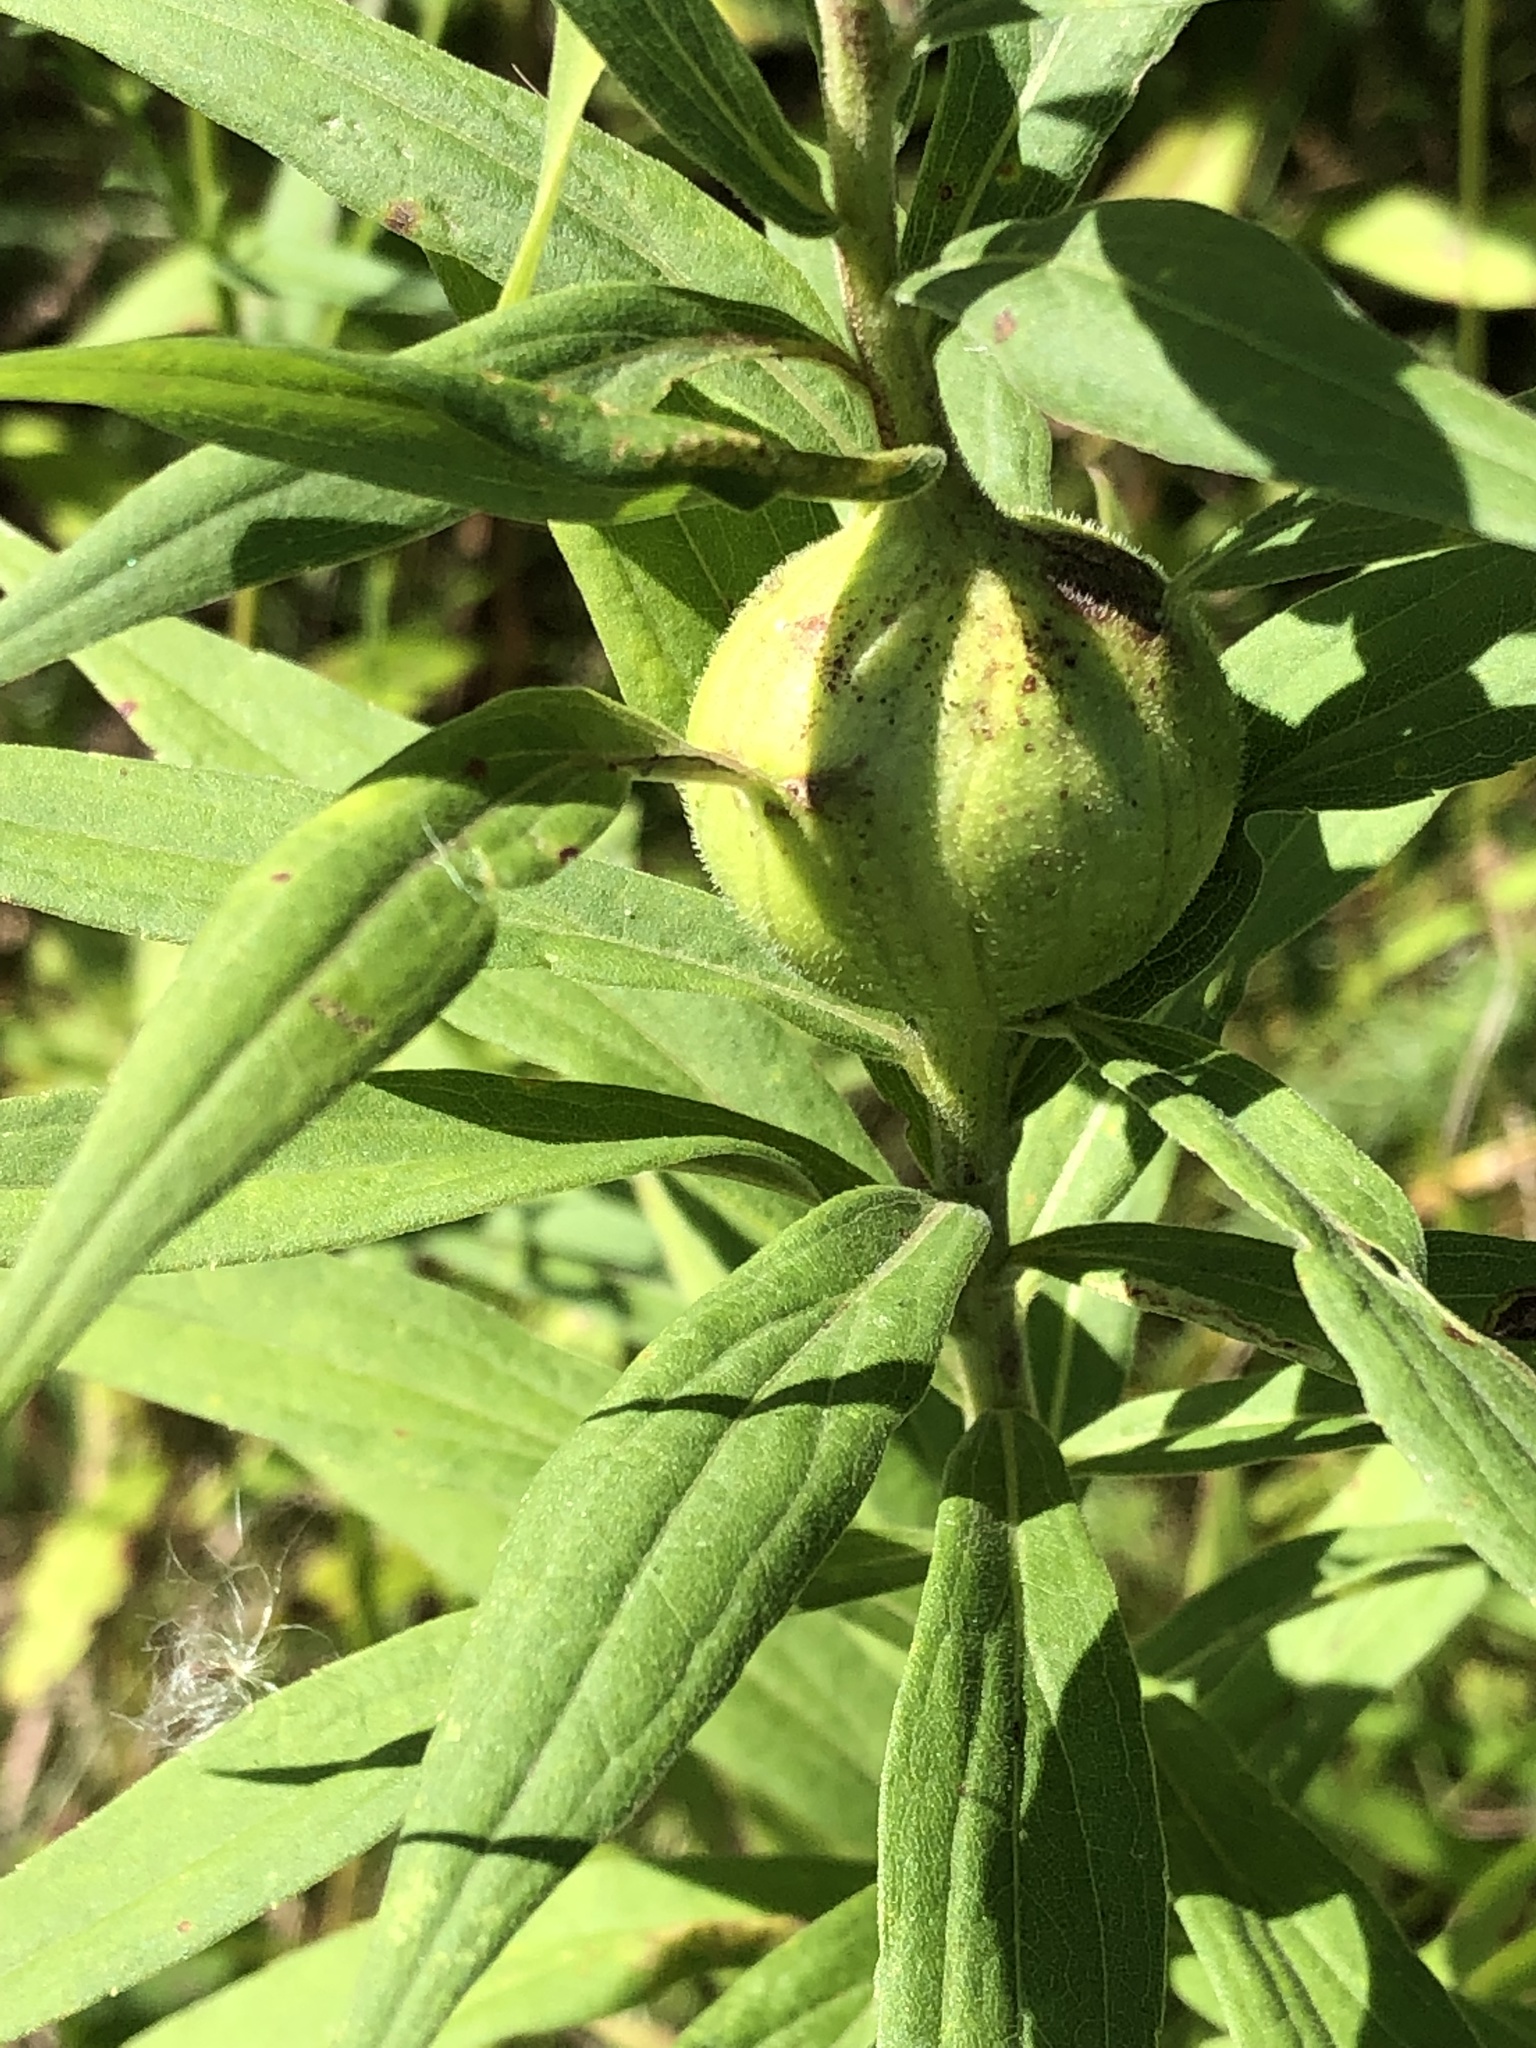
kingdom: Animalia
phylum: Arthropoda
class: Insecta
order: Diptera
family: Tephritidae
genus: Eurosta
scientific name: Eurosta solidaginis
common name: Goldenrod gall fly
